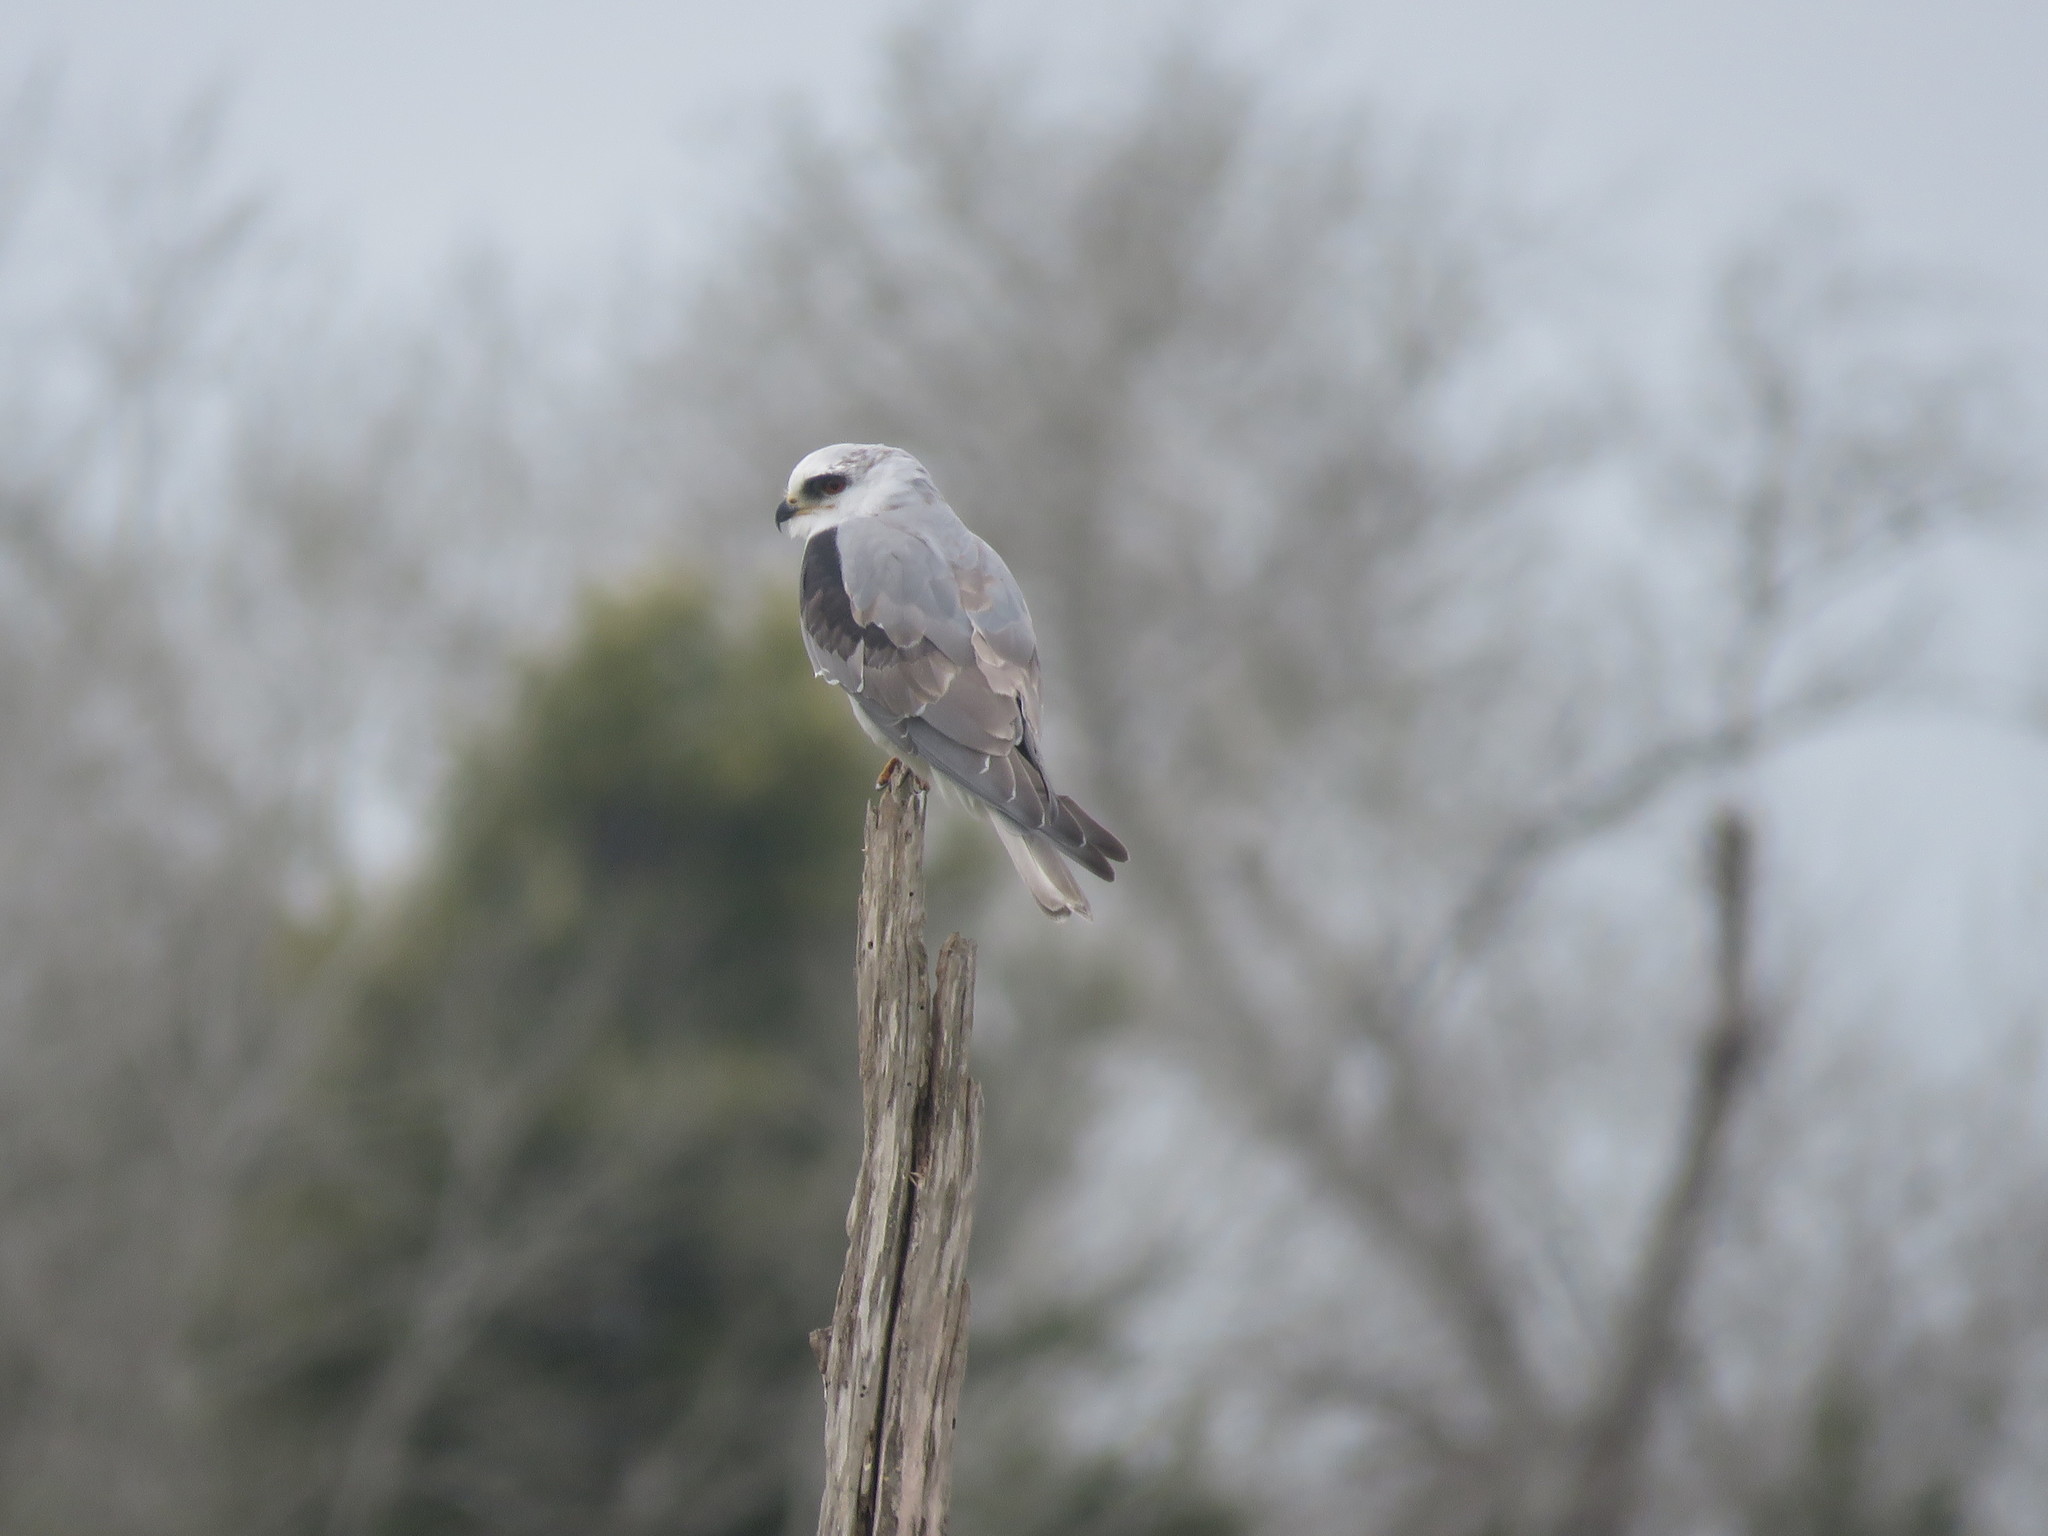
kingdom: Animalia
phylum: Chordata
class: Aves
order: Accipitriformes
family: Accipitridae
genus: Elanus
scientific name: Elanus leucurus
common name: White-tailed kite
